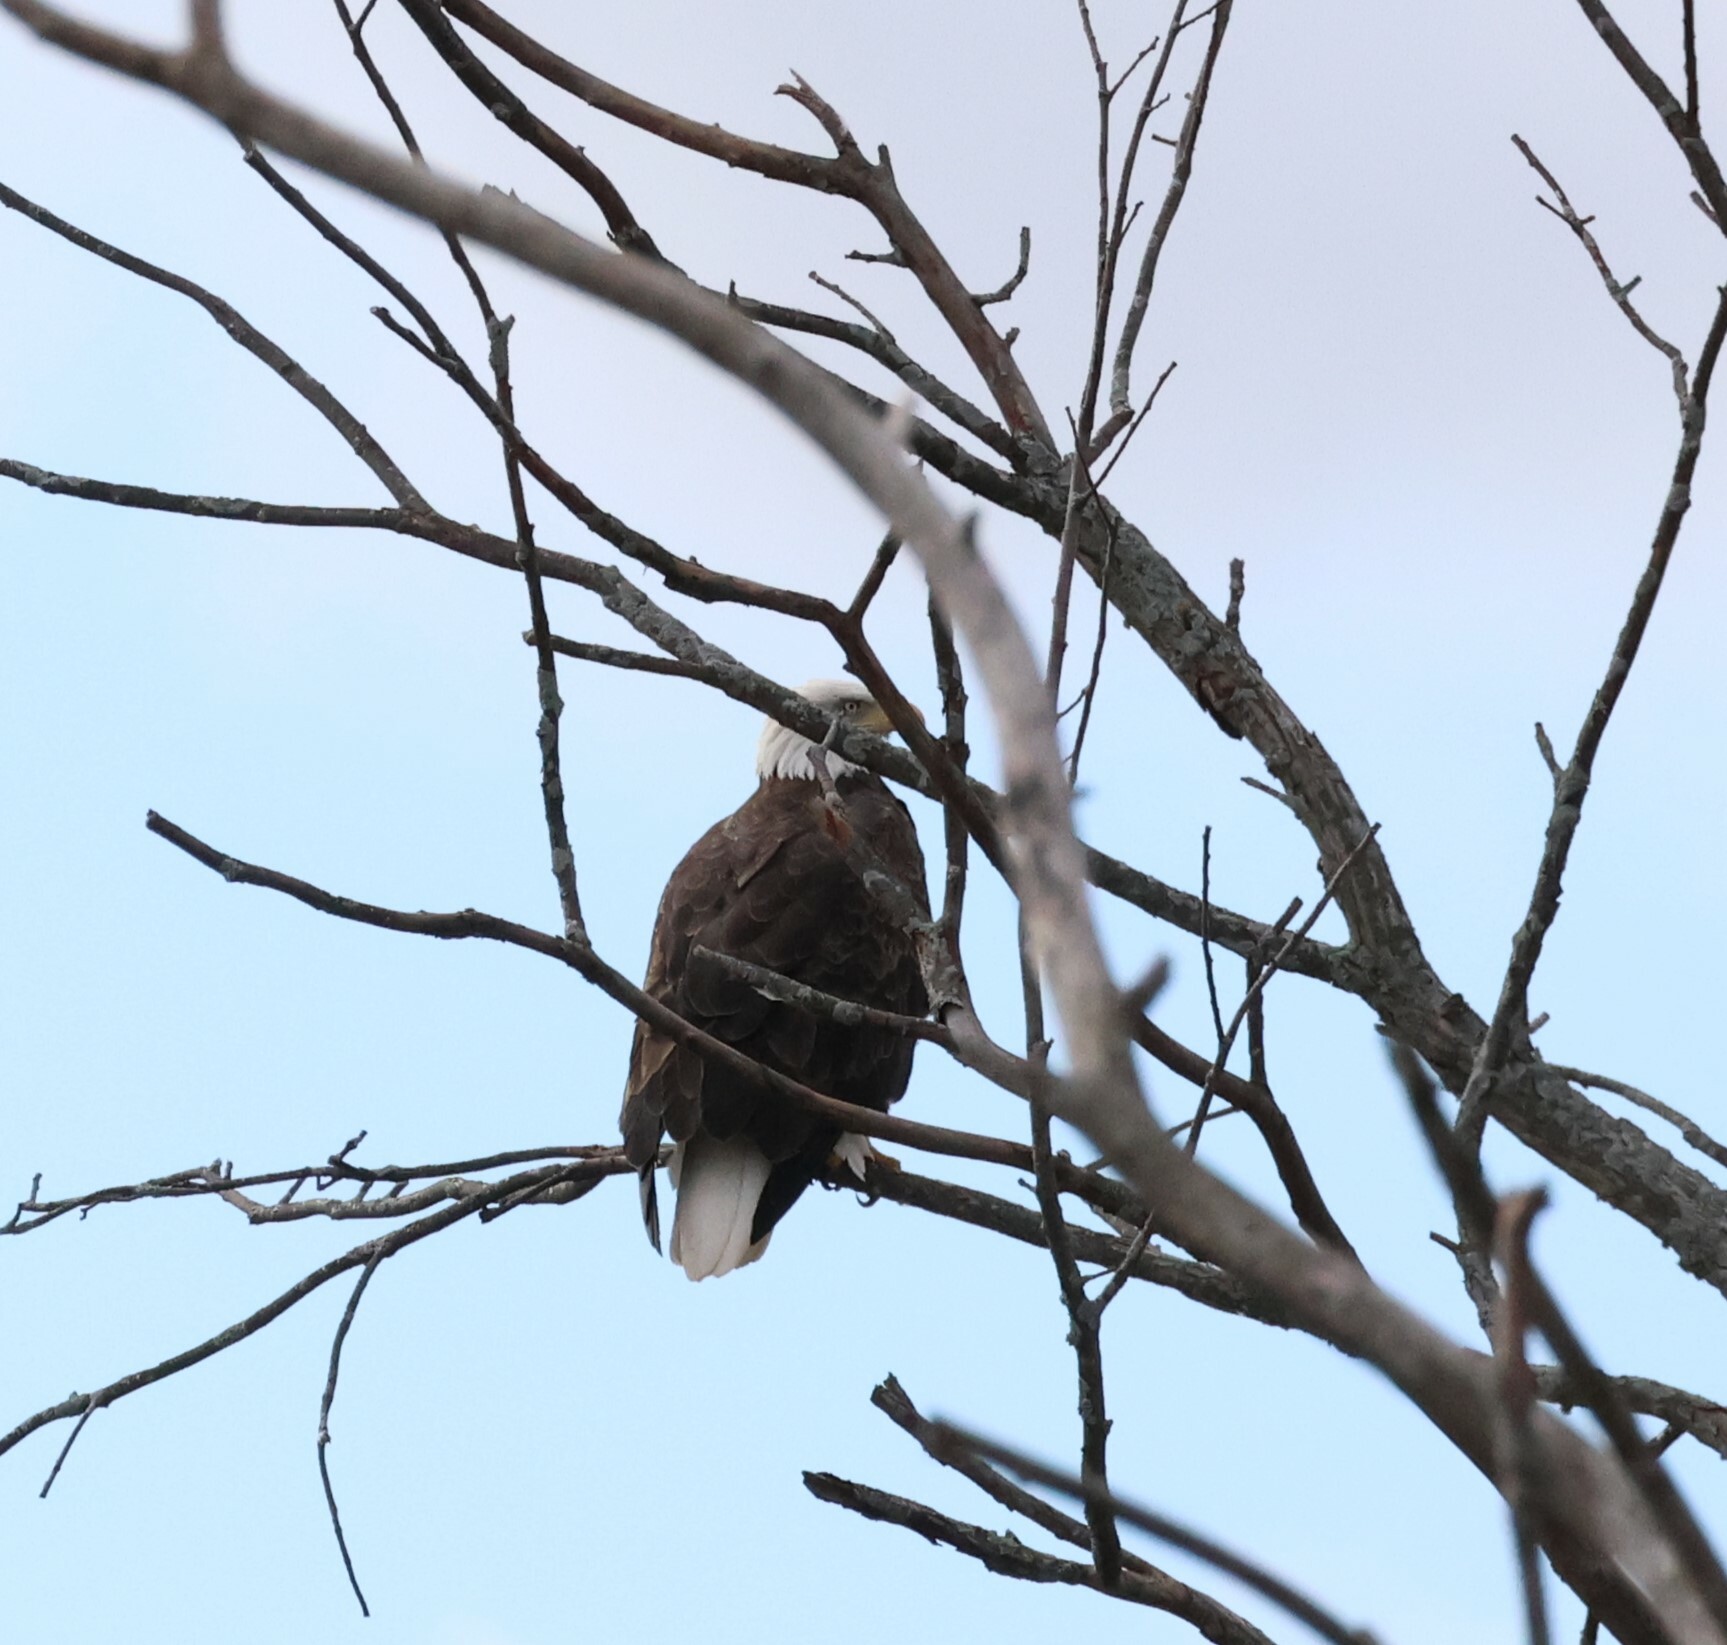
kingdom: Animalia
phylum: Chordata
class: Aves
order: Accipitriformes
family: Accipitridae
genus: Haliaeetus
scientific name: Haliaeetus leucocephalus
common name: Bald eagle
